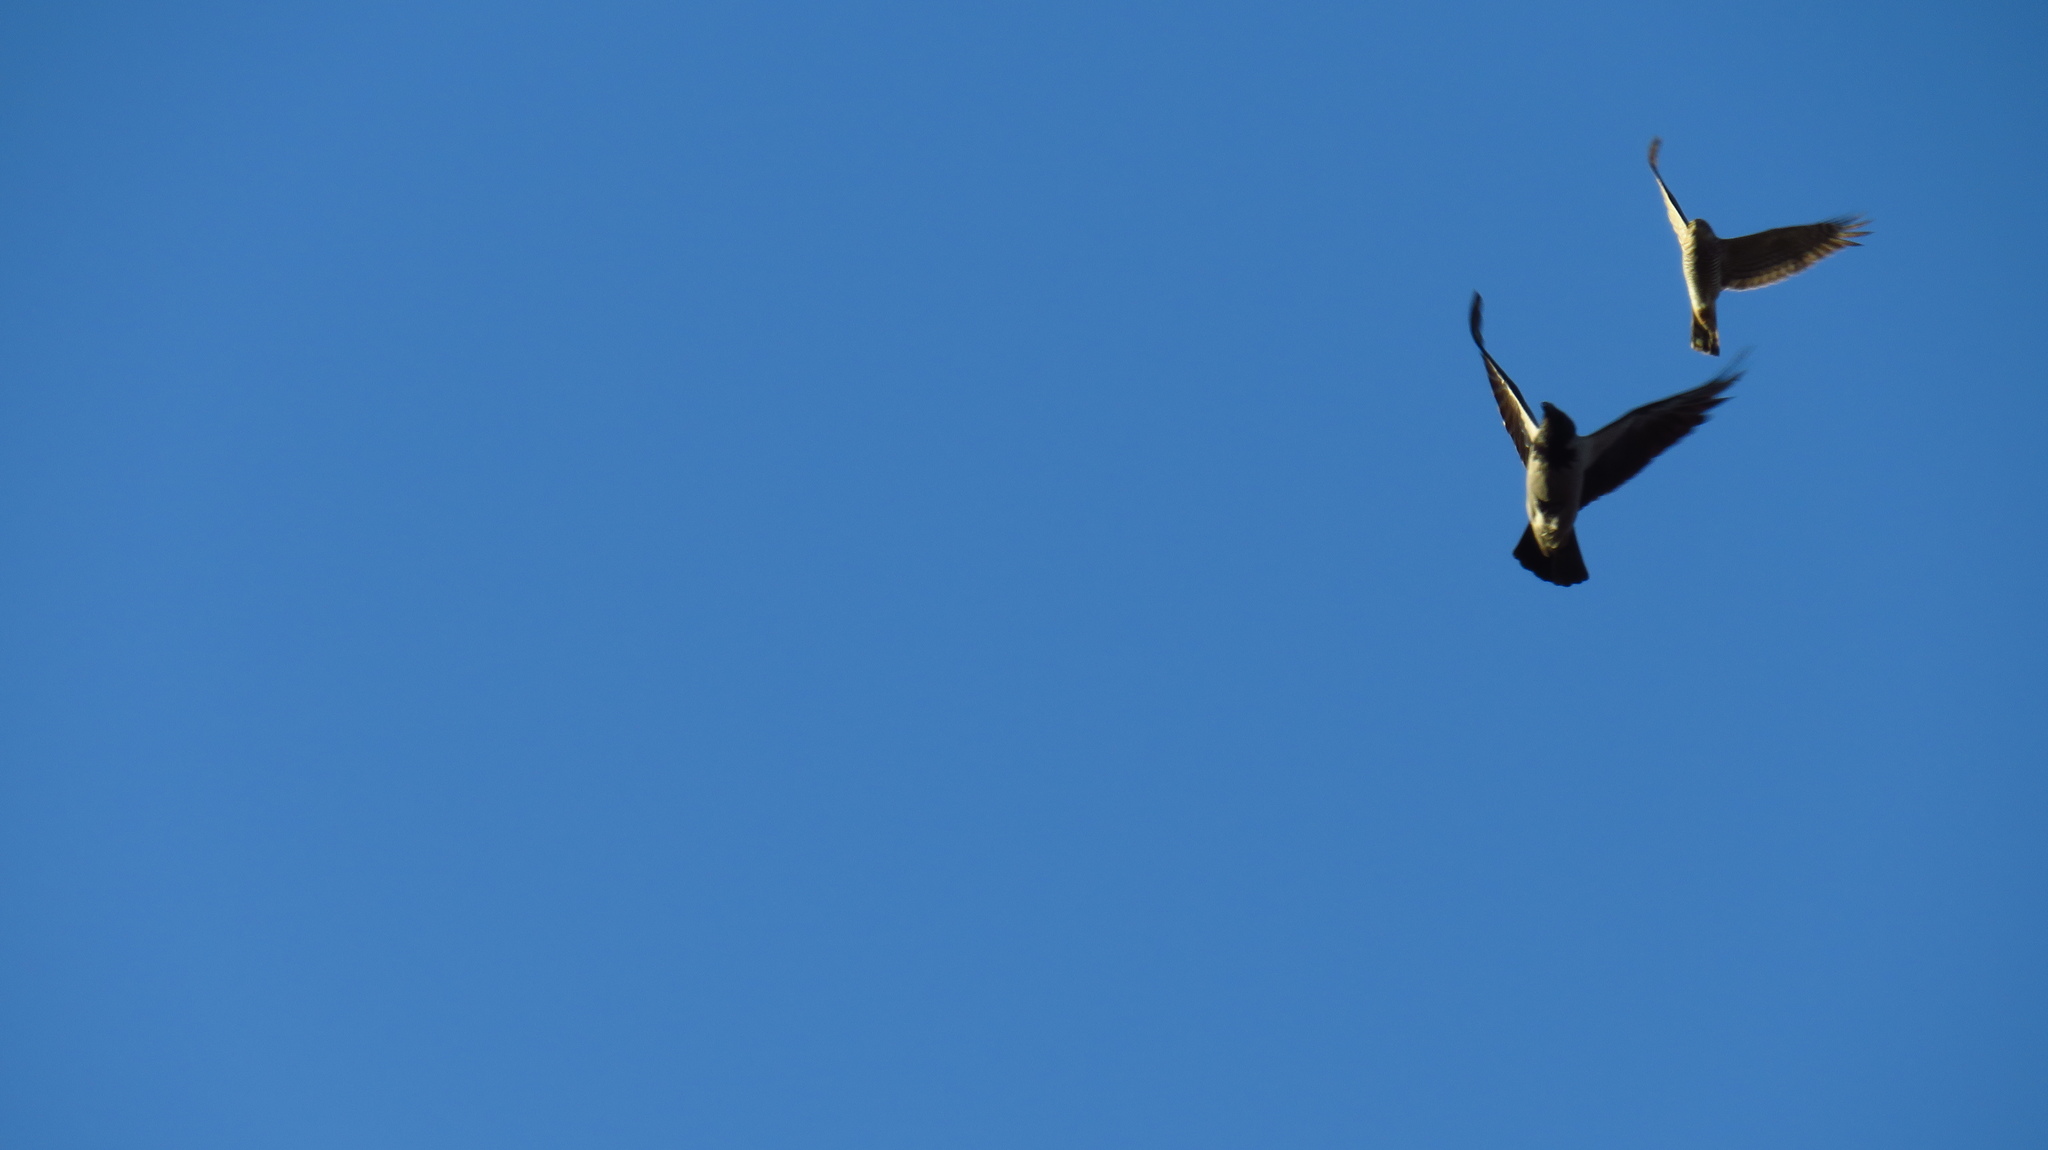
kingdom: Animalia
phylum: Chordata
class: Aves
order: Accipitriformes
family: Accipitridae
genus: Accipiter
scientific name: Accipiter nisus
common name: Eurasian sparrowhawk
